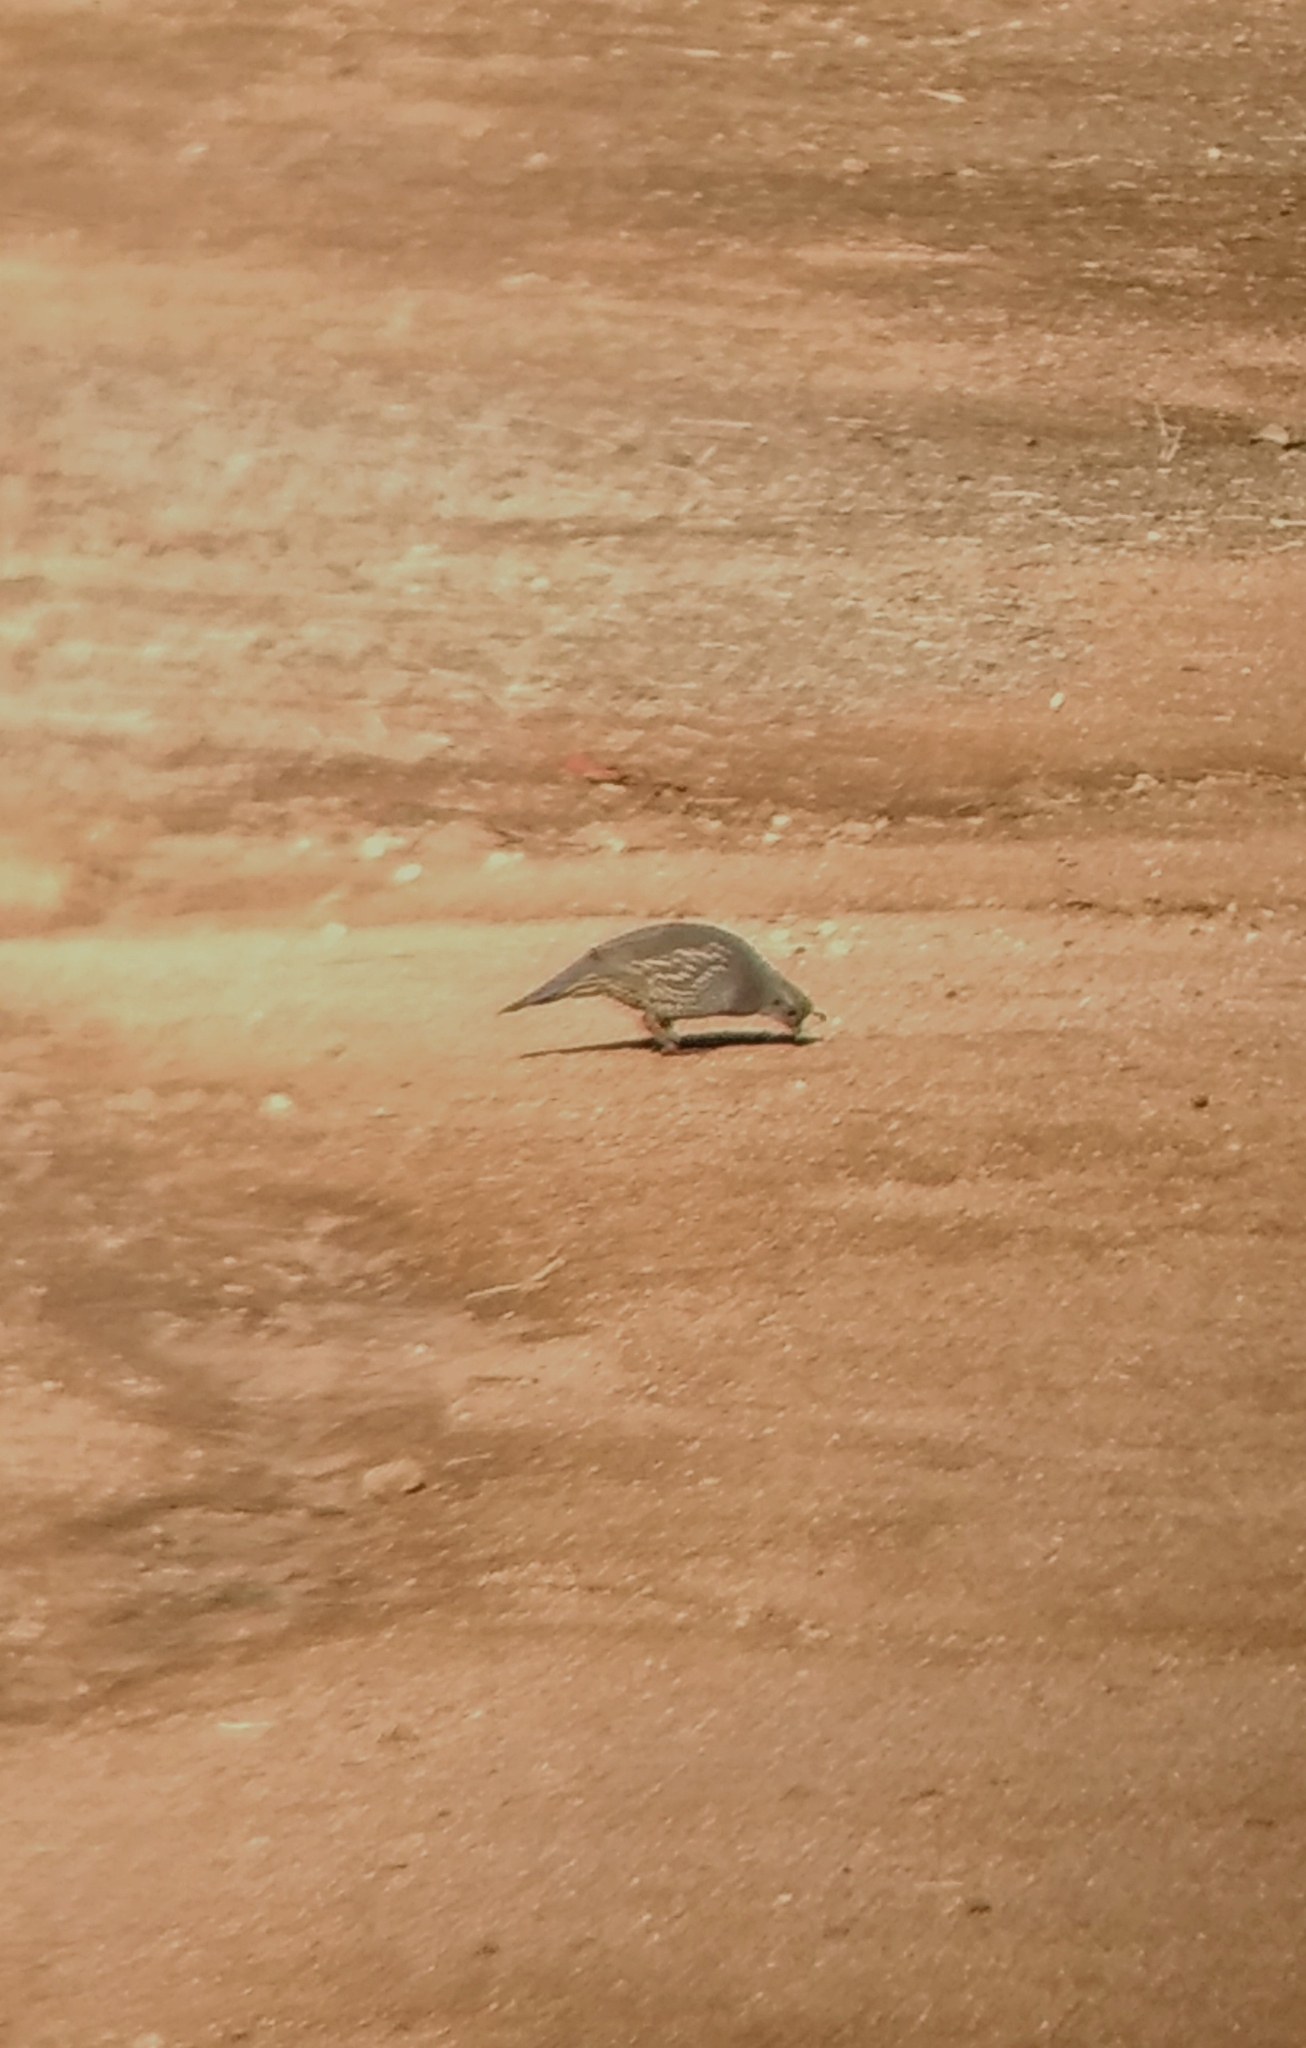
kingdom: Animalia
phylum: Chordata
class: Aves
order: Galliformes
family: Odontophoridae
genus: Callipepla
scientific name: Callipepla californica
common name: California quail
